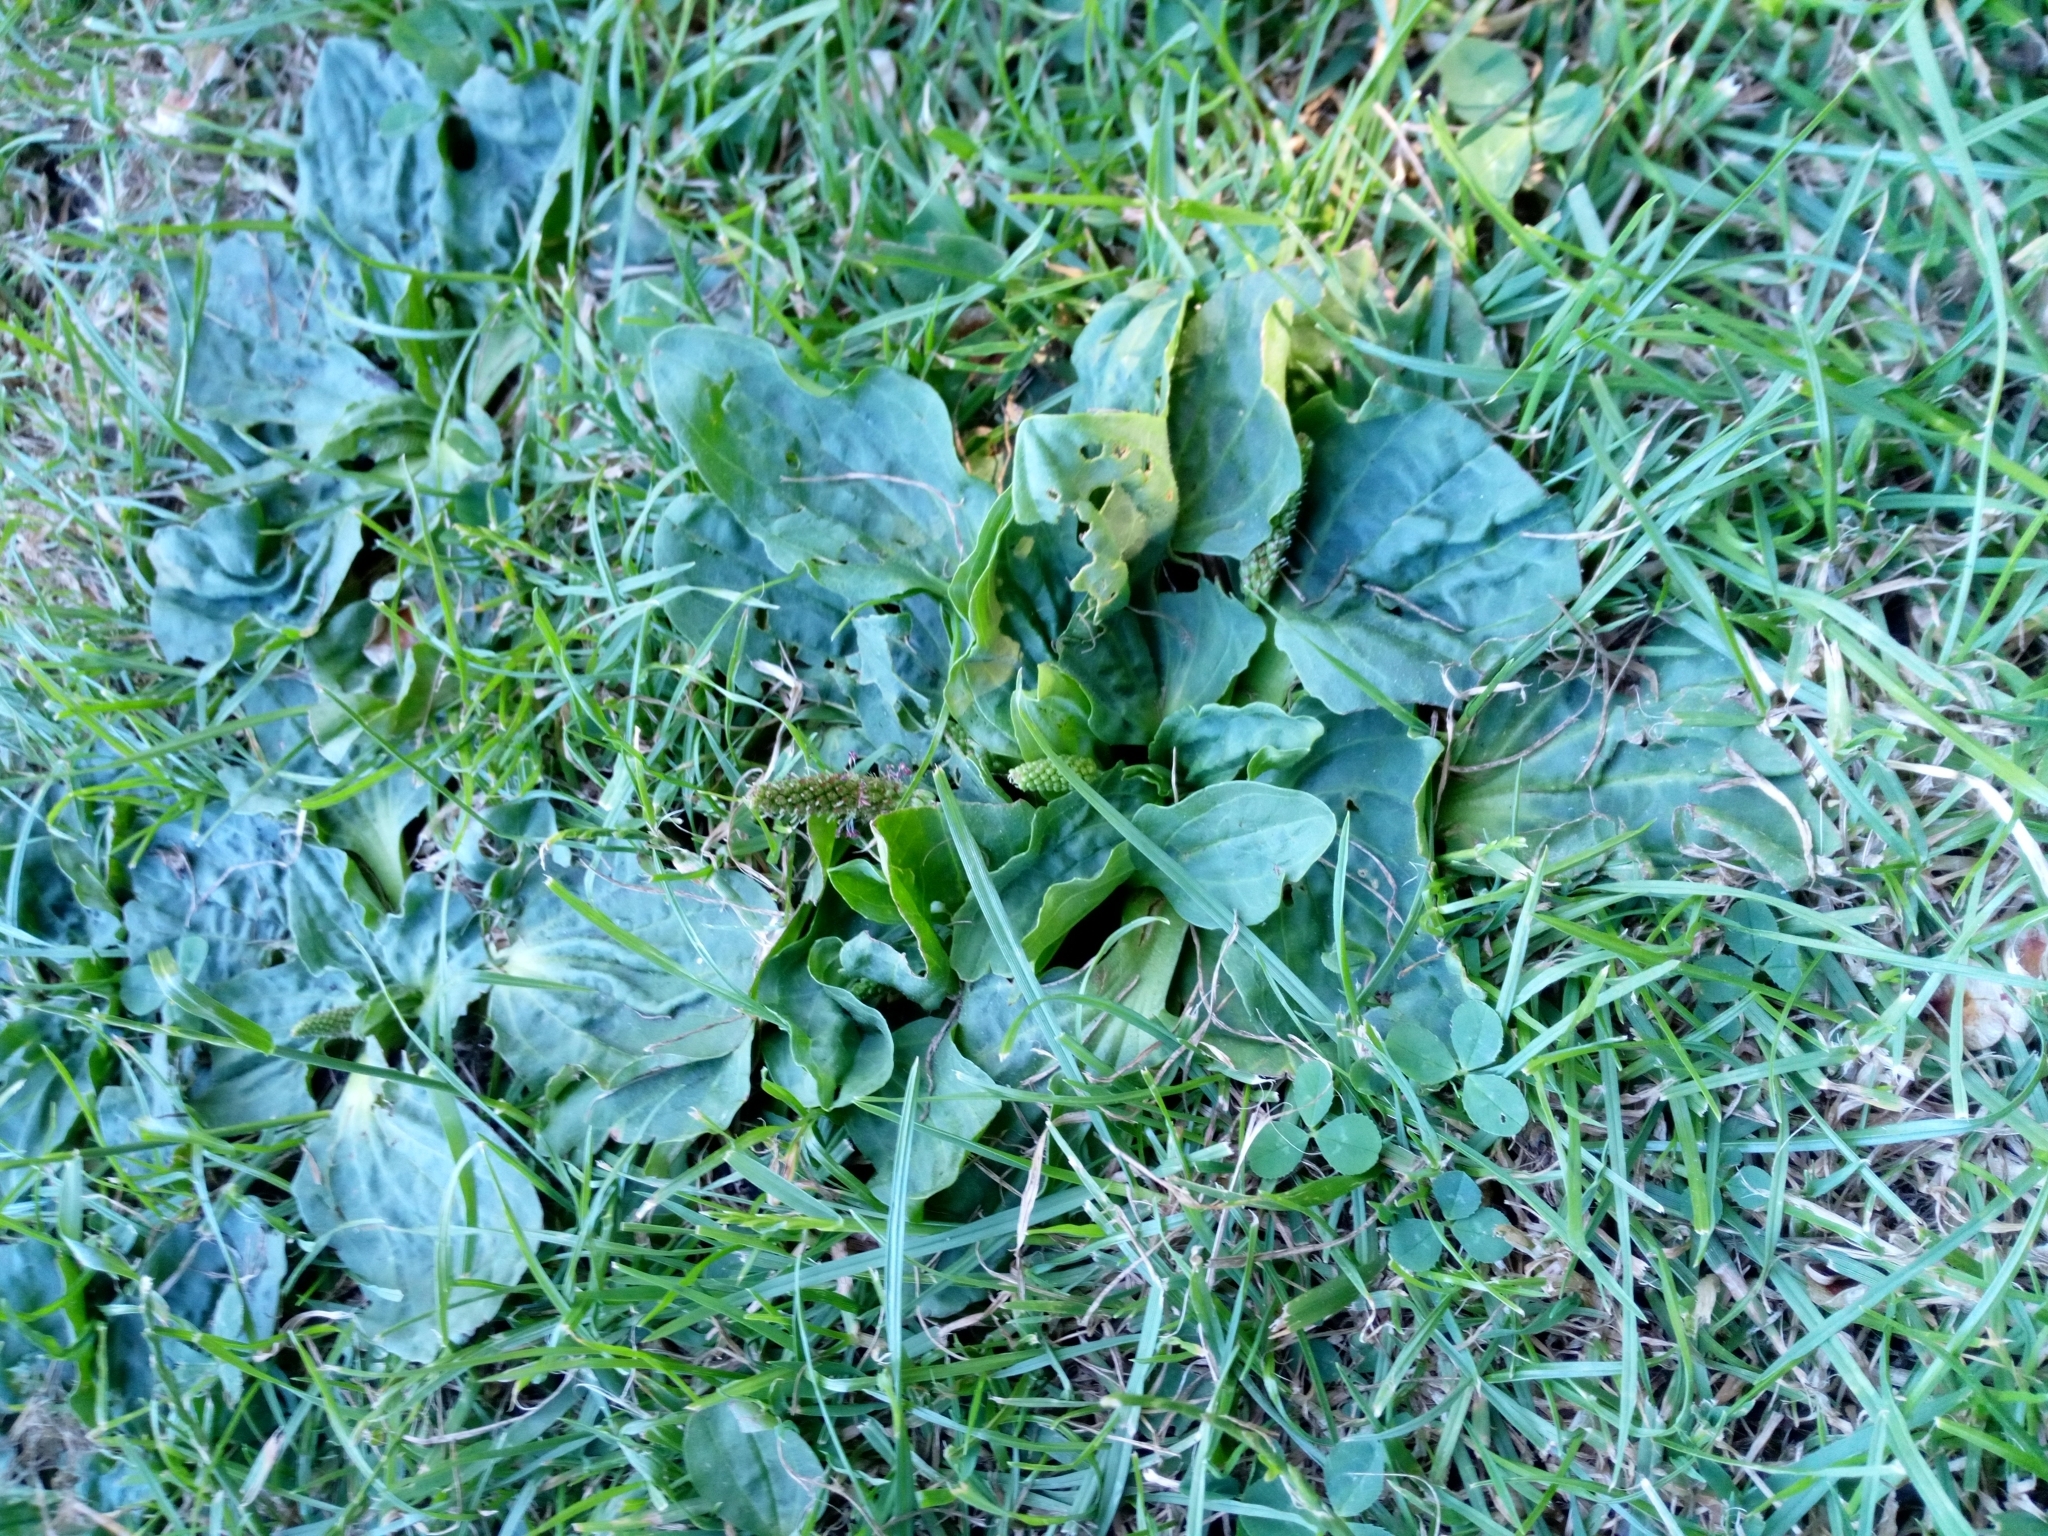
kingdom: Plantae
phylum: Tracheophyta
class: Magnoliopsida
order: Lamiales
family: Plantaginaceae
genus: Plantago
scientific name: Plantago major
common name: Common plantain
